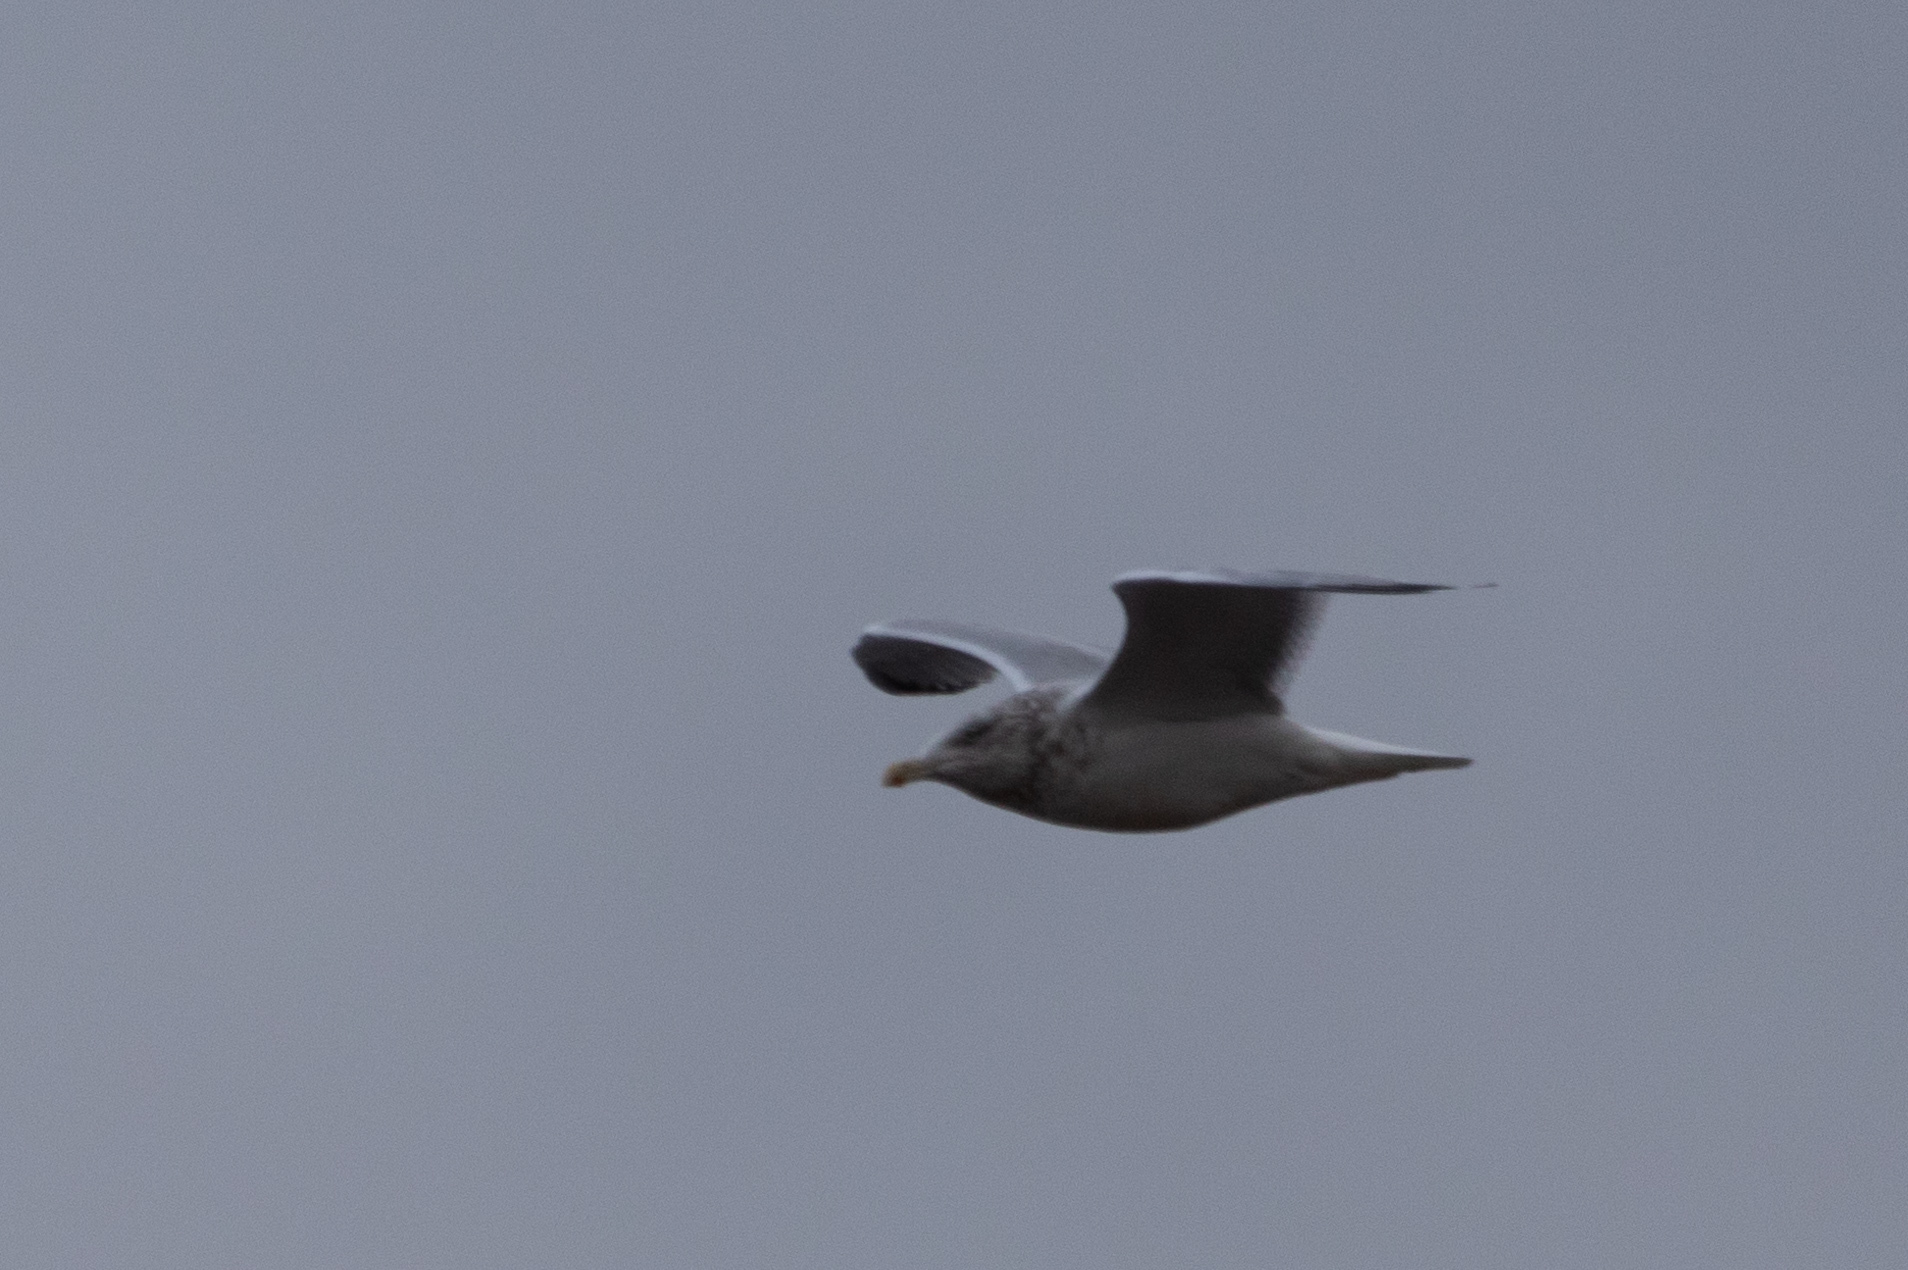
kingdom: Animalia
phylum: Chordata
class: Aves
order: Charadriiformes
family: Laridae
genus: Larus
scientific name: Larus argentatus
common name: Herring gull
